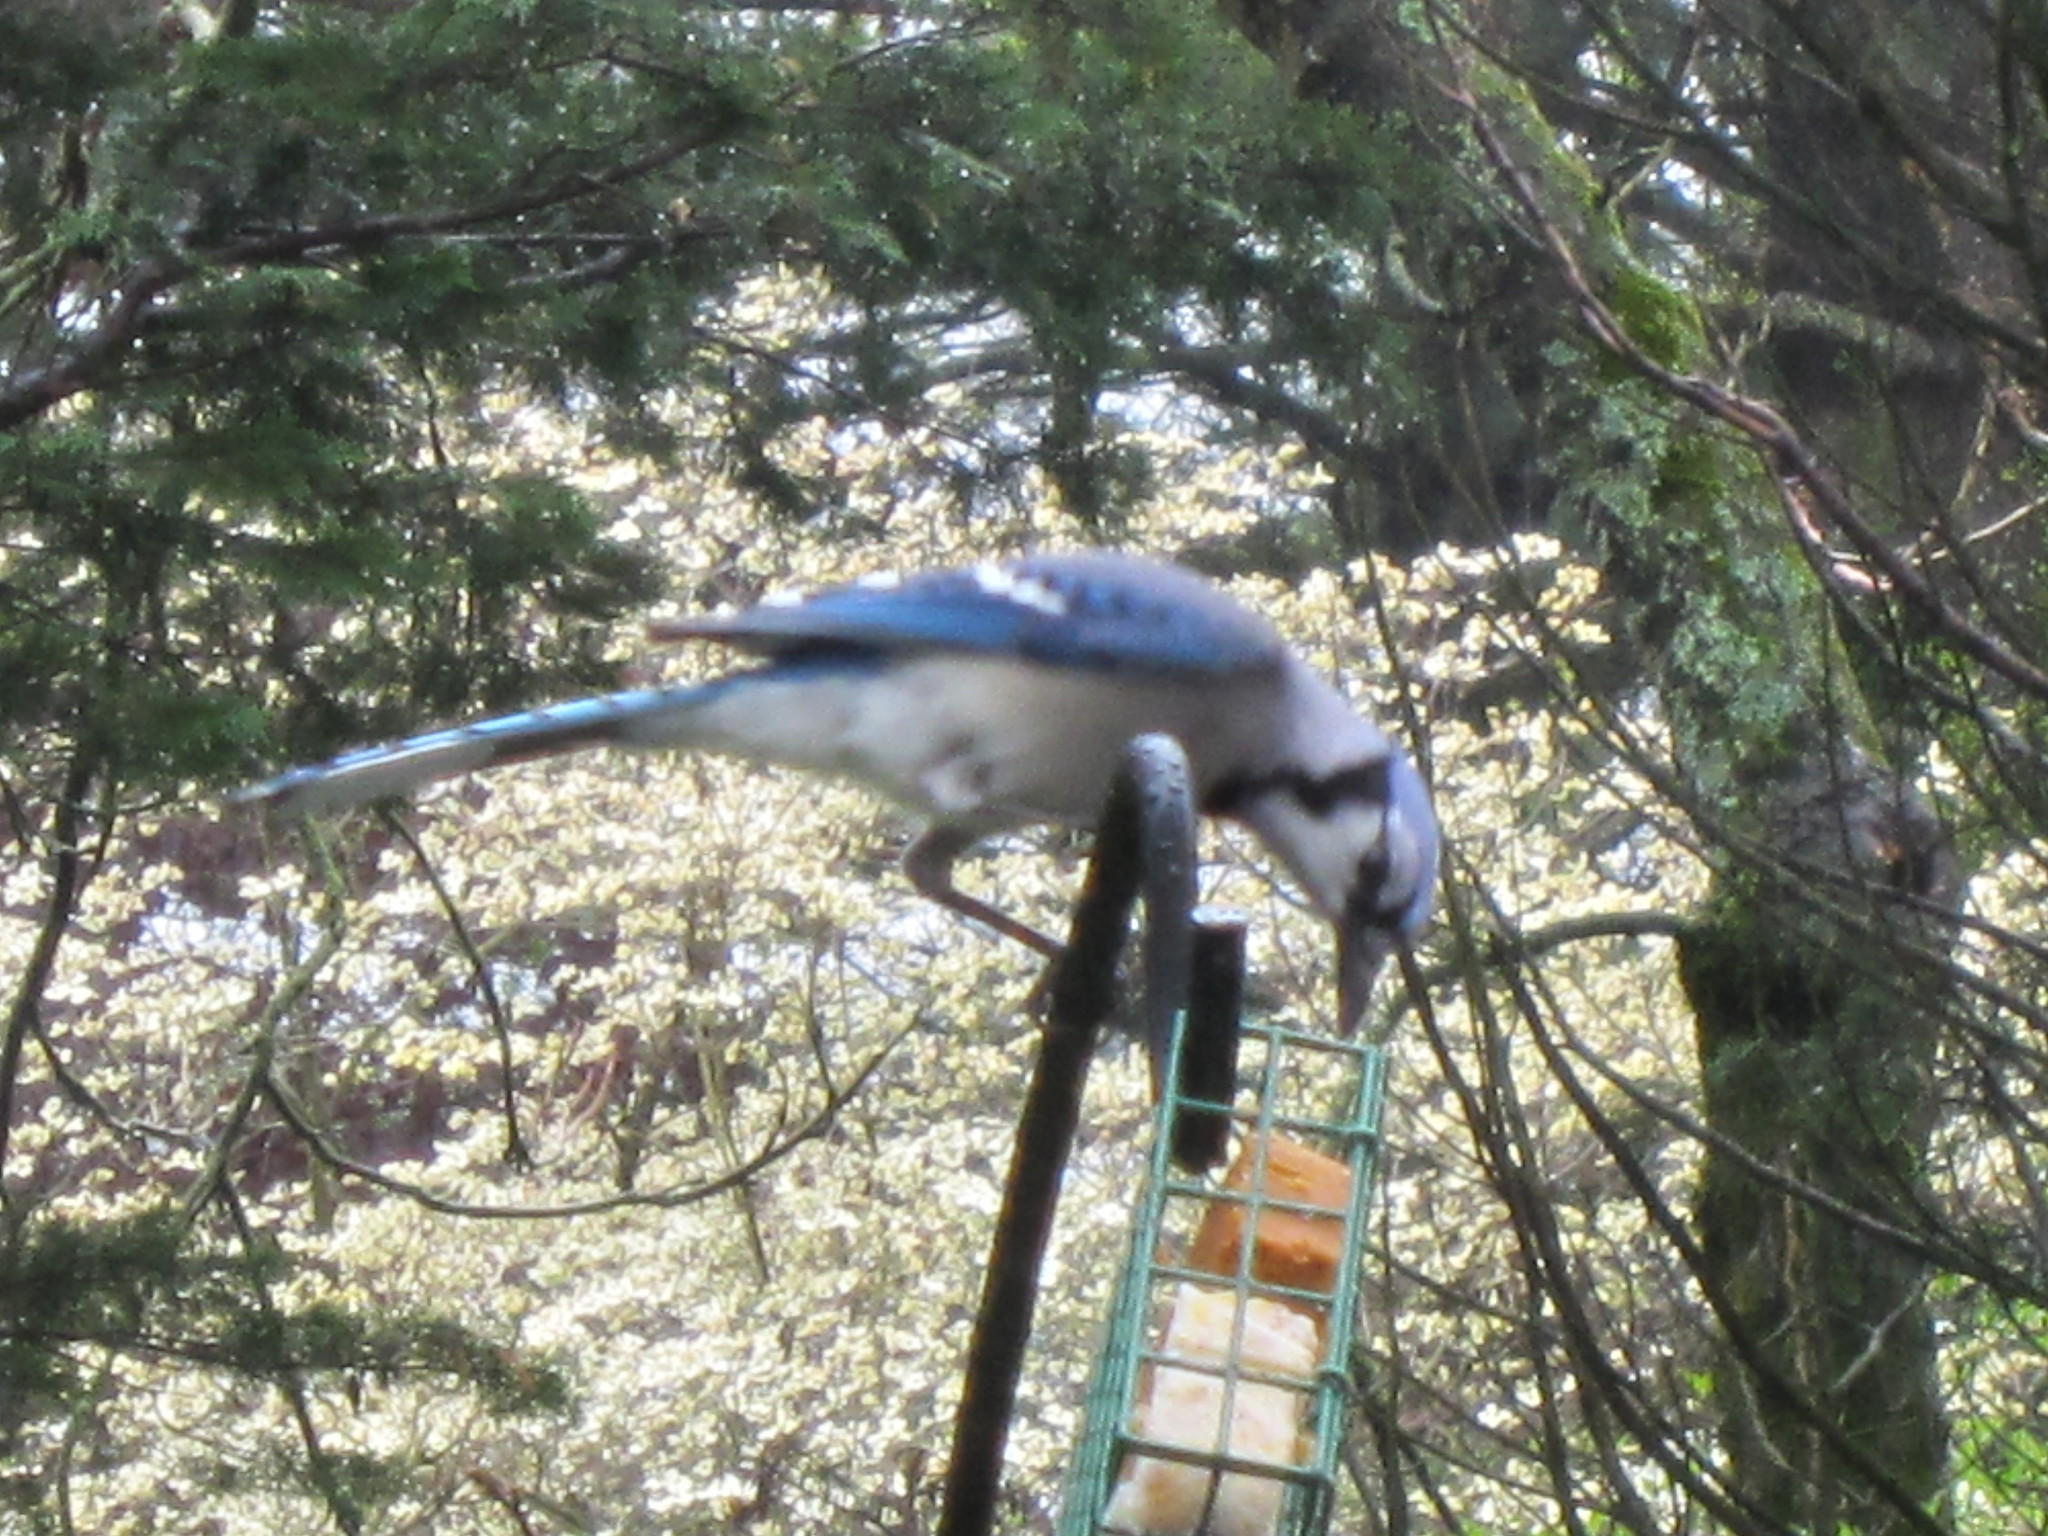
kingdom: Animalia
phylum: Chordata
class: Aves
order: Passeriformes
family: Corvidae
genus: Cyanocitta
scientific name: Cyanocitta cristata
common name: Blue jay
